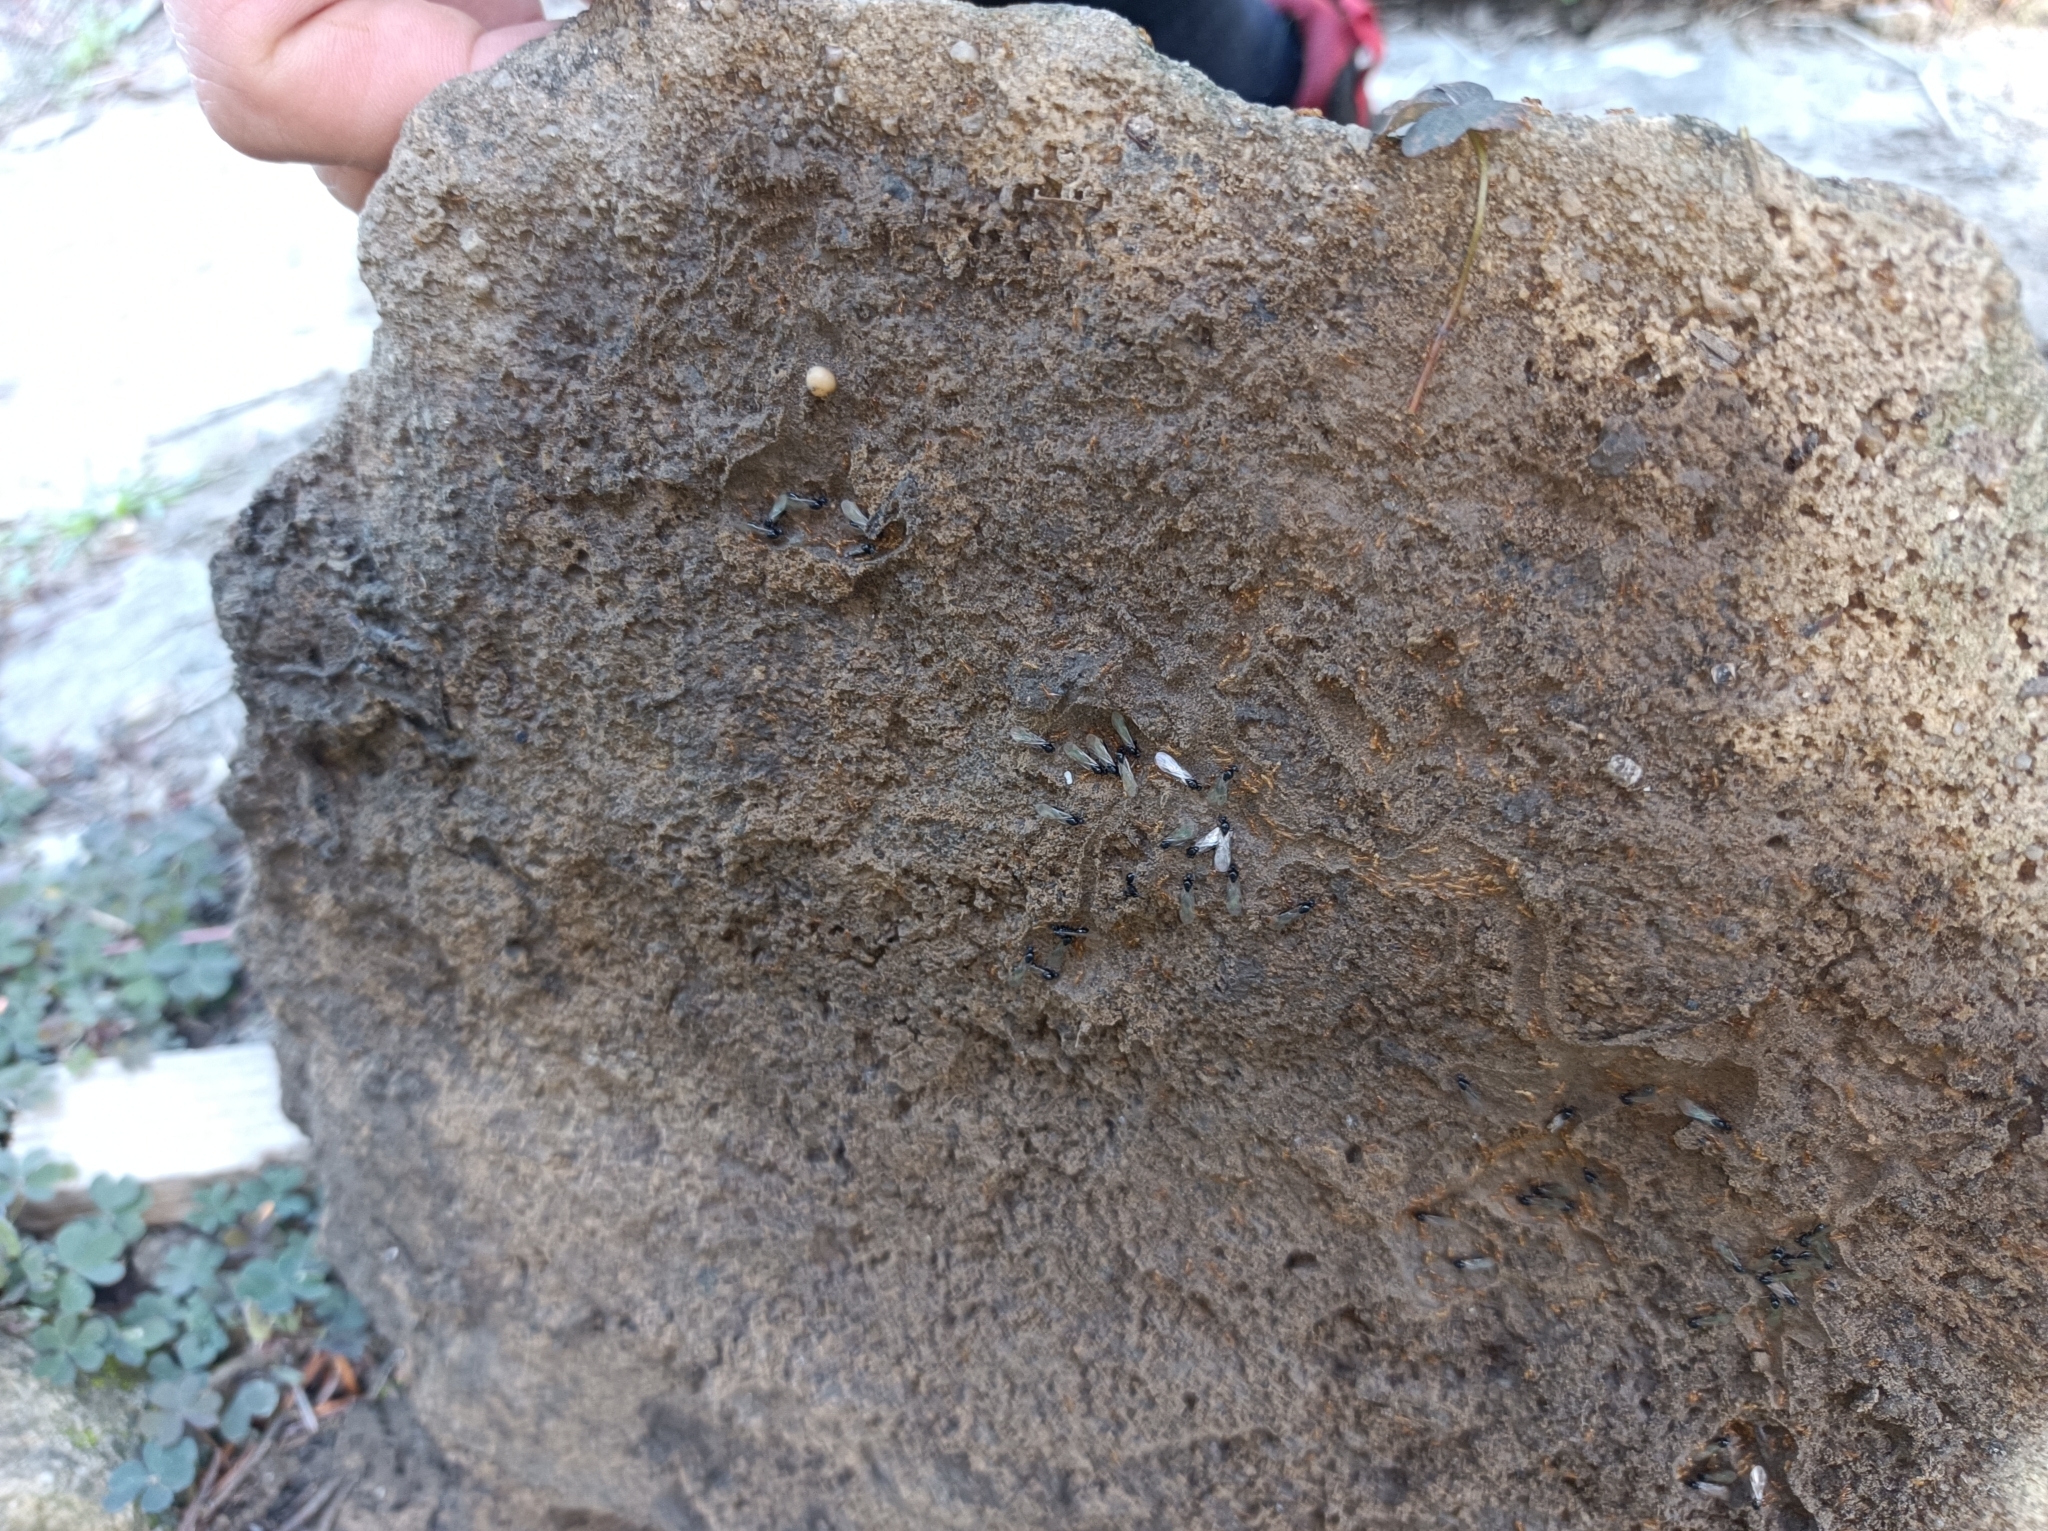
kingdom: Animalia
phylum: Arthropoda
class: Insecta
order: Hymenoptera
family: Formicidae
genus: Solenopsis
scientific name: Solenopsis fugax
